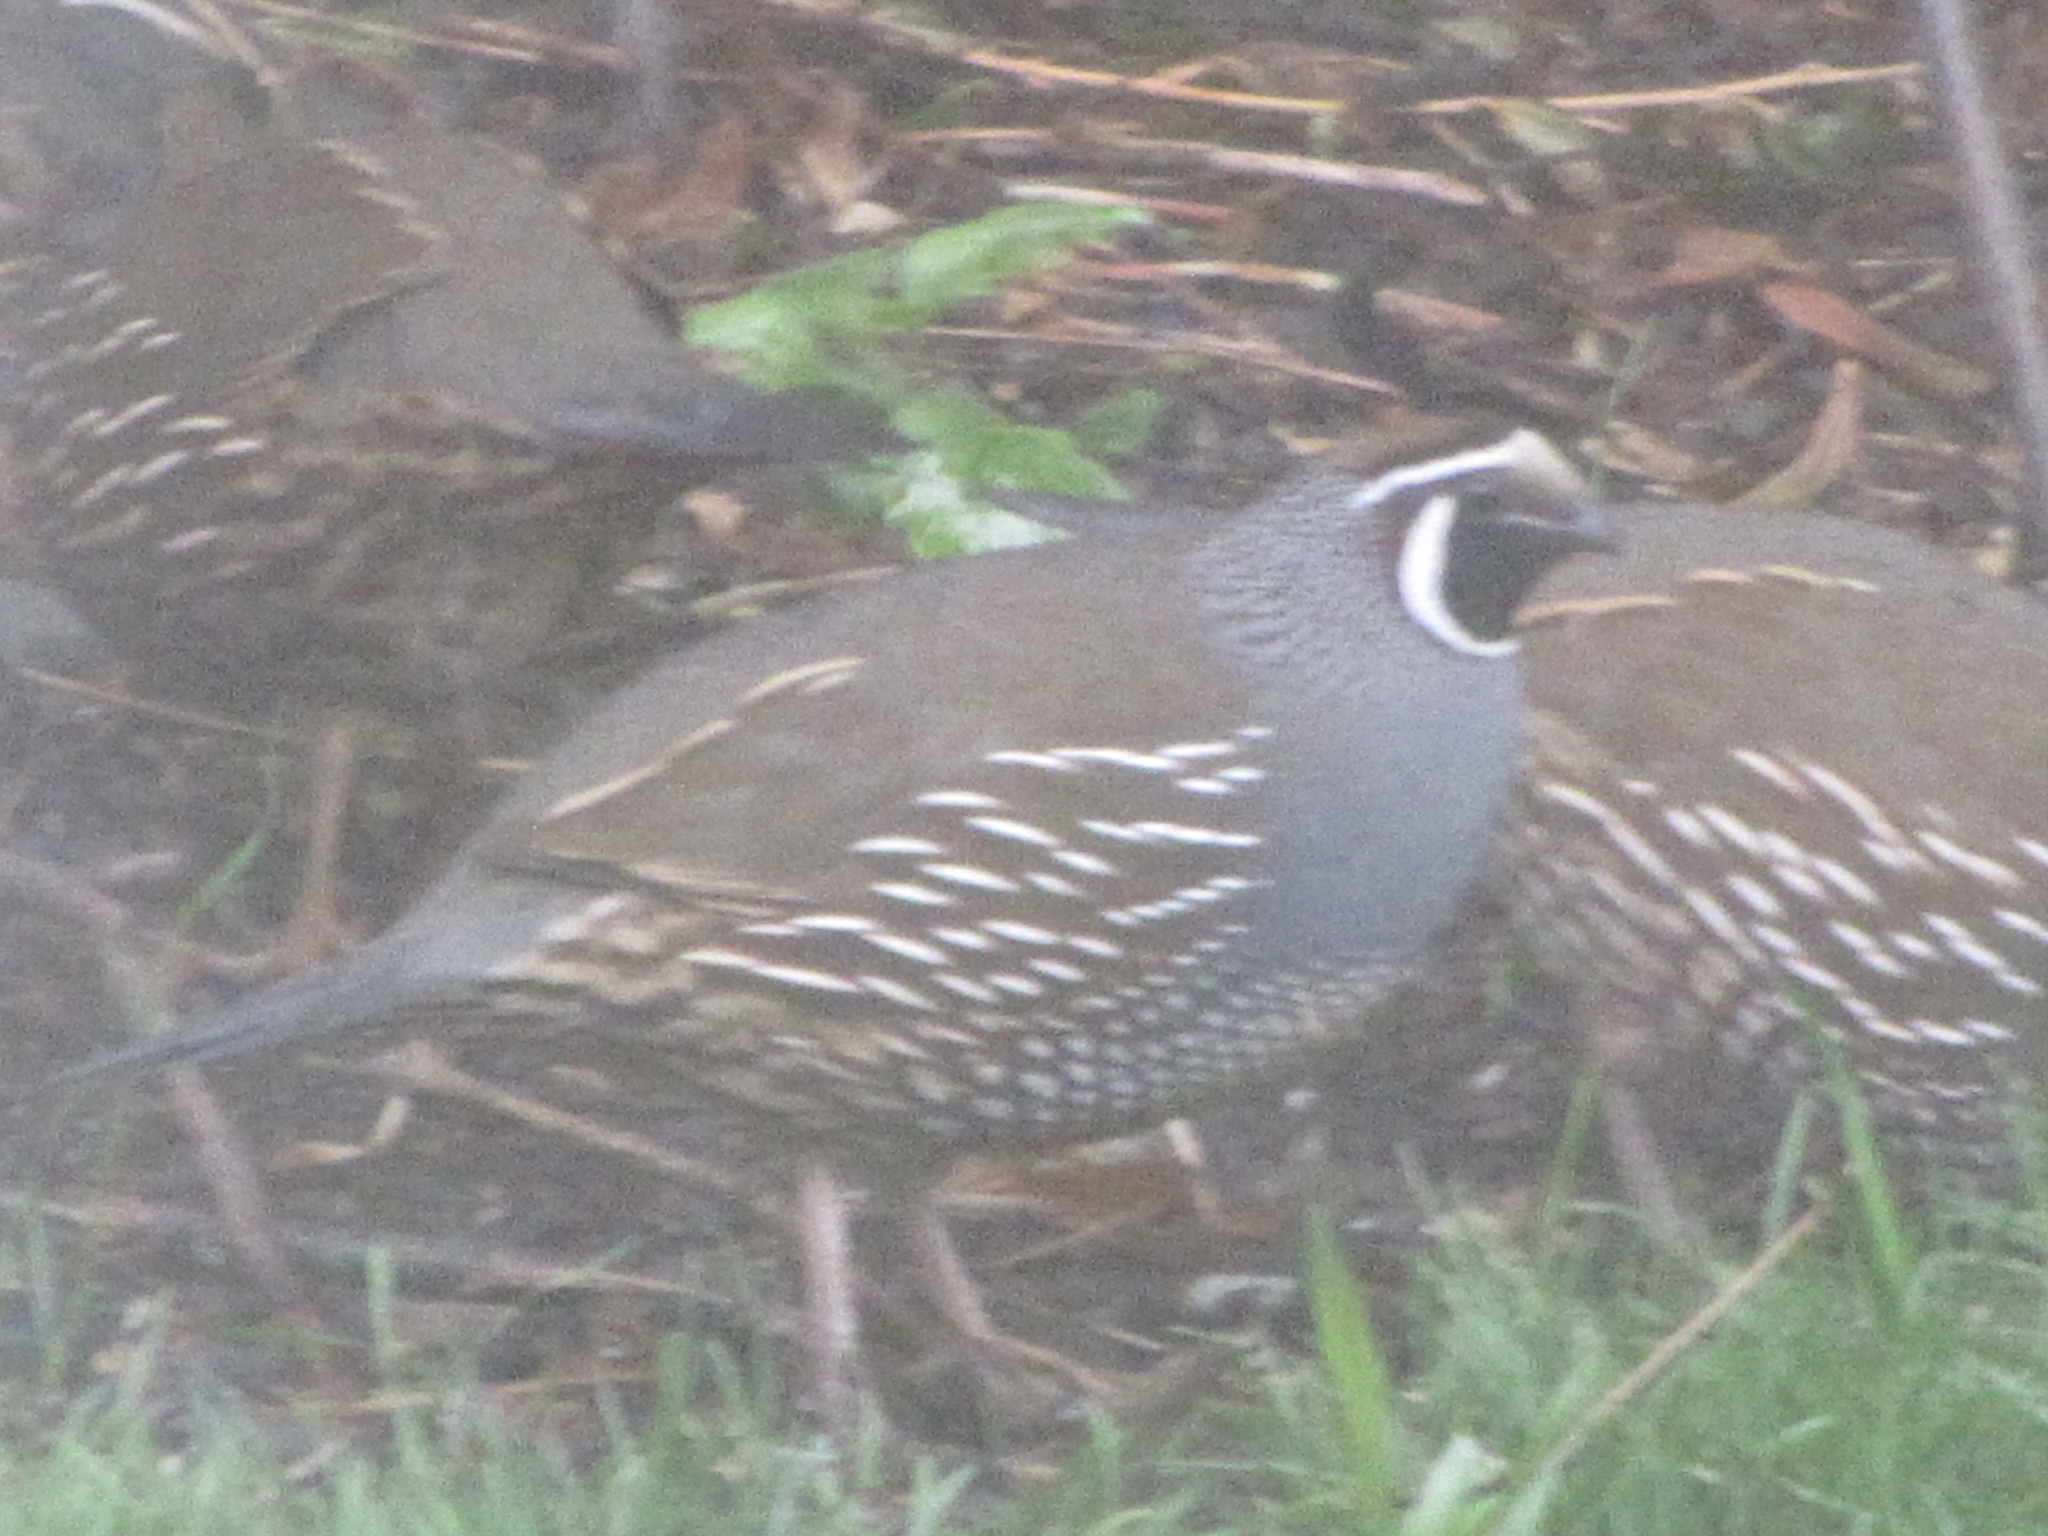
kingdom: Animalia
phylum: Chordata
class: Aves
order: Galliformes
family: Odontophoridae
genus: Callipepla
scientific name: Callipepla californica
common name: California quail
